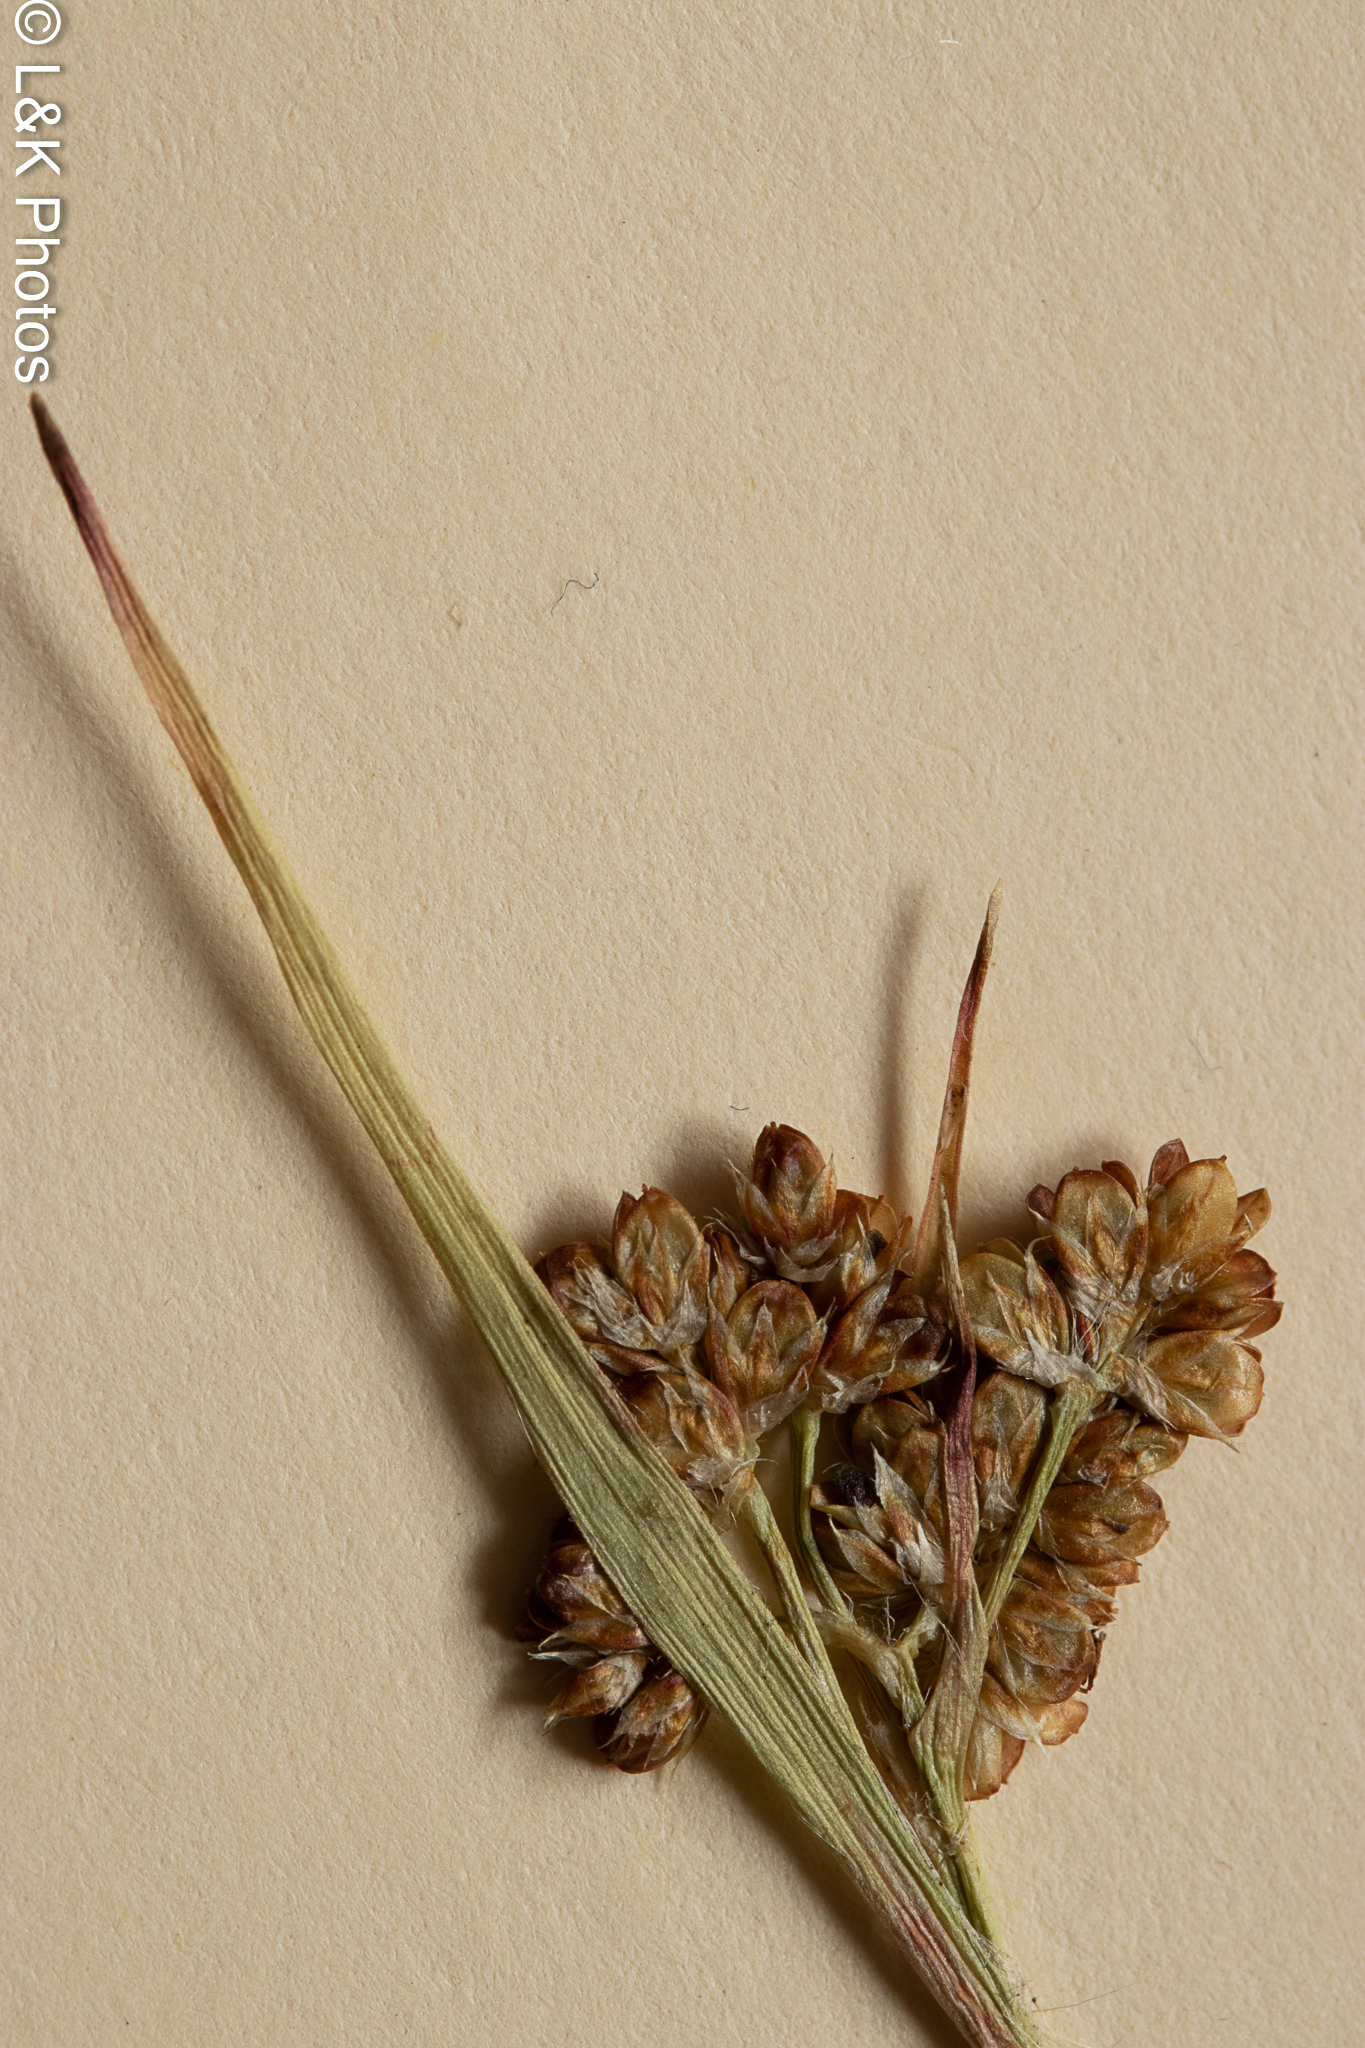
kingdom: Plantae
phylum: Tracheophyta
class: Liliopsida
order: Poales
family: Juncaceae
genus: Luzula
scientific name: Luzula multiflora
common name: Heath wood-rush
